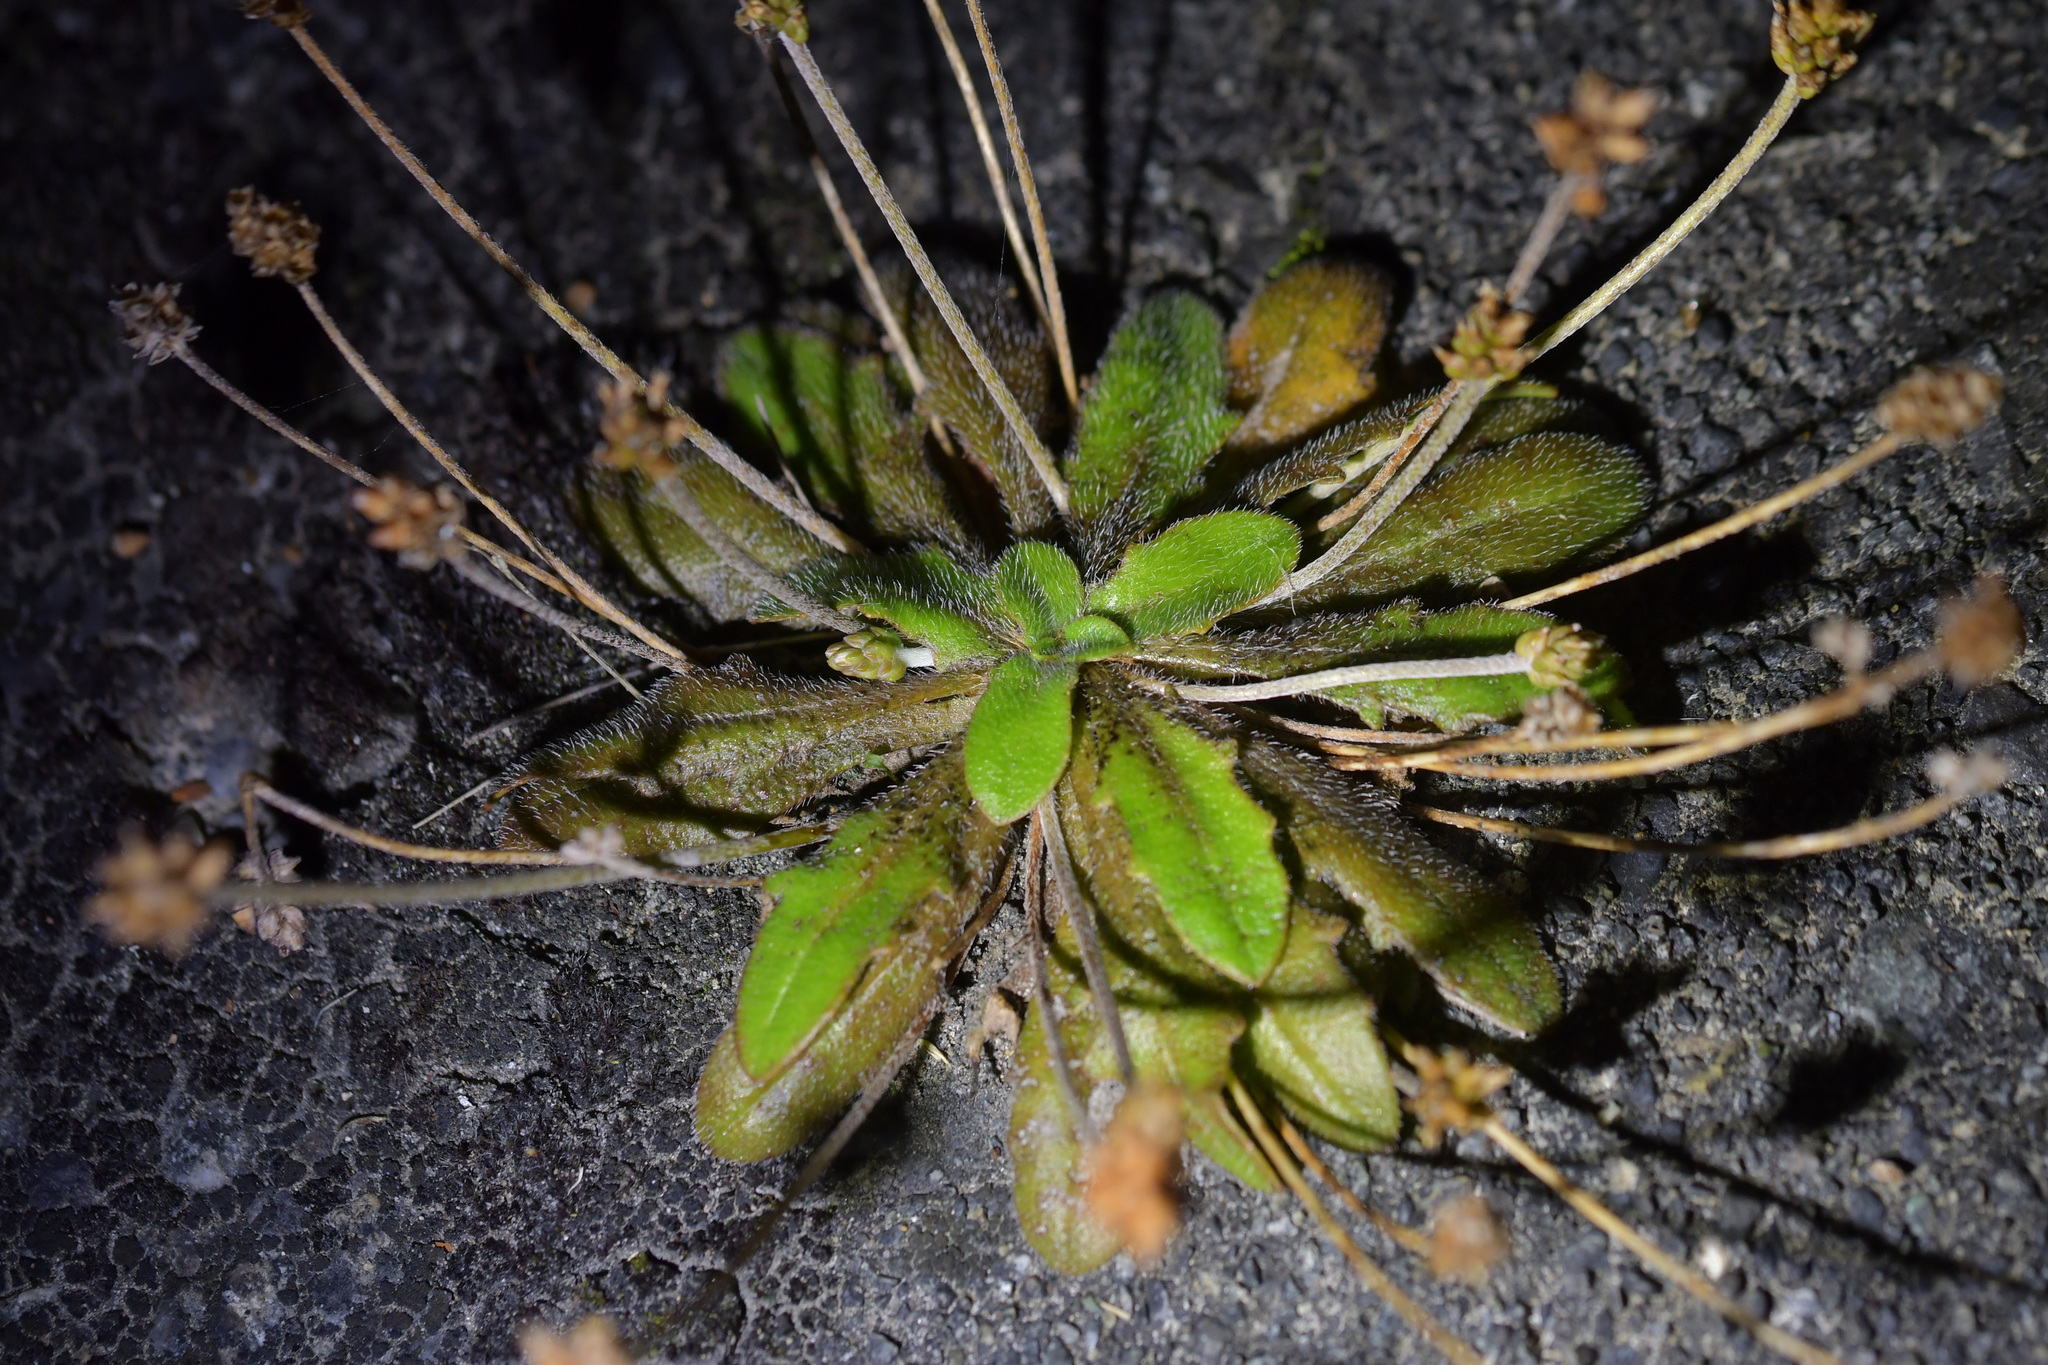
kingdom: Plantae
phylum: Tracheophyta
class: Magnoliopsida
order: Lamiales
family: Plantaginaceae
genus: Plantago
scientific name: Plantago raoulii
